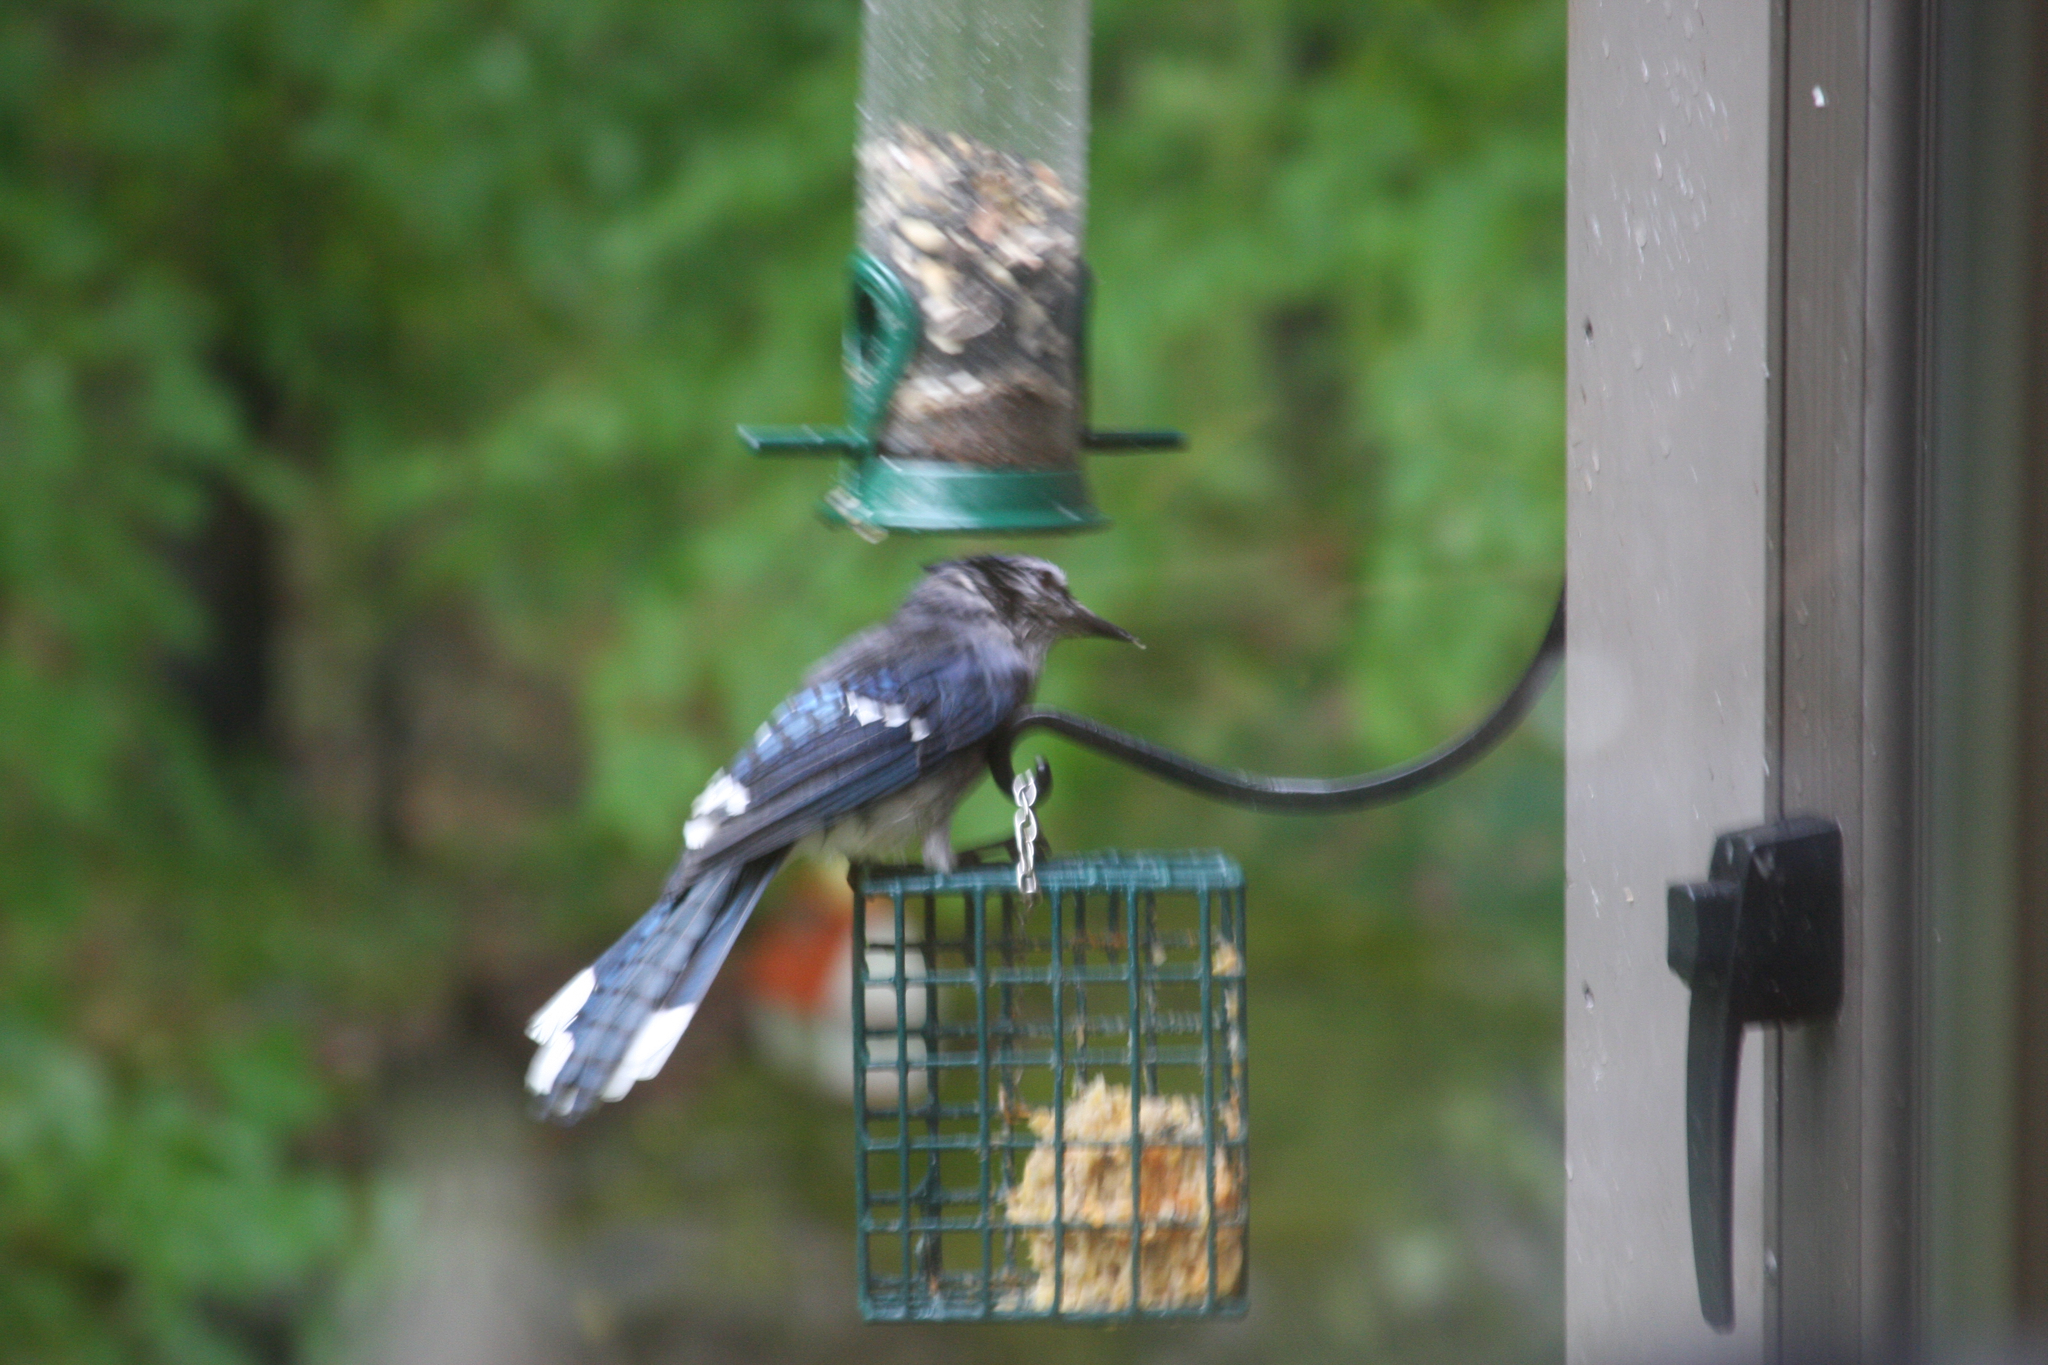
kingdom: Animalia
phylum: Chordata
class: Aves
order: Passeriformes
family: Corvidae
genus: Cyanocitta
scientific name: Cyanocitta cristata
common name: Blue jay
